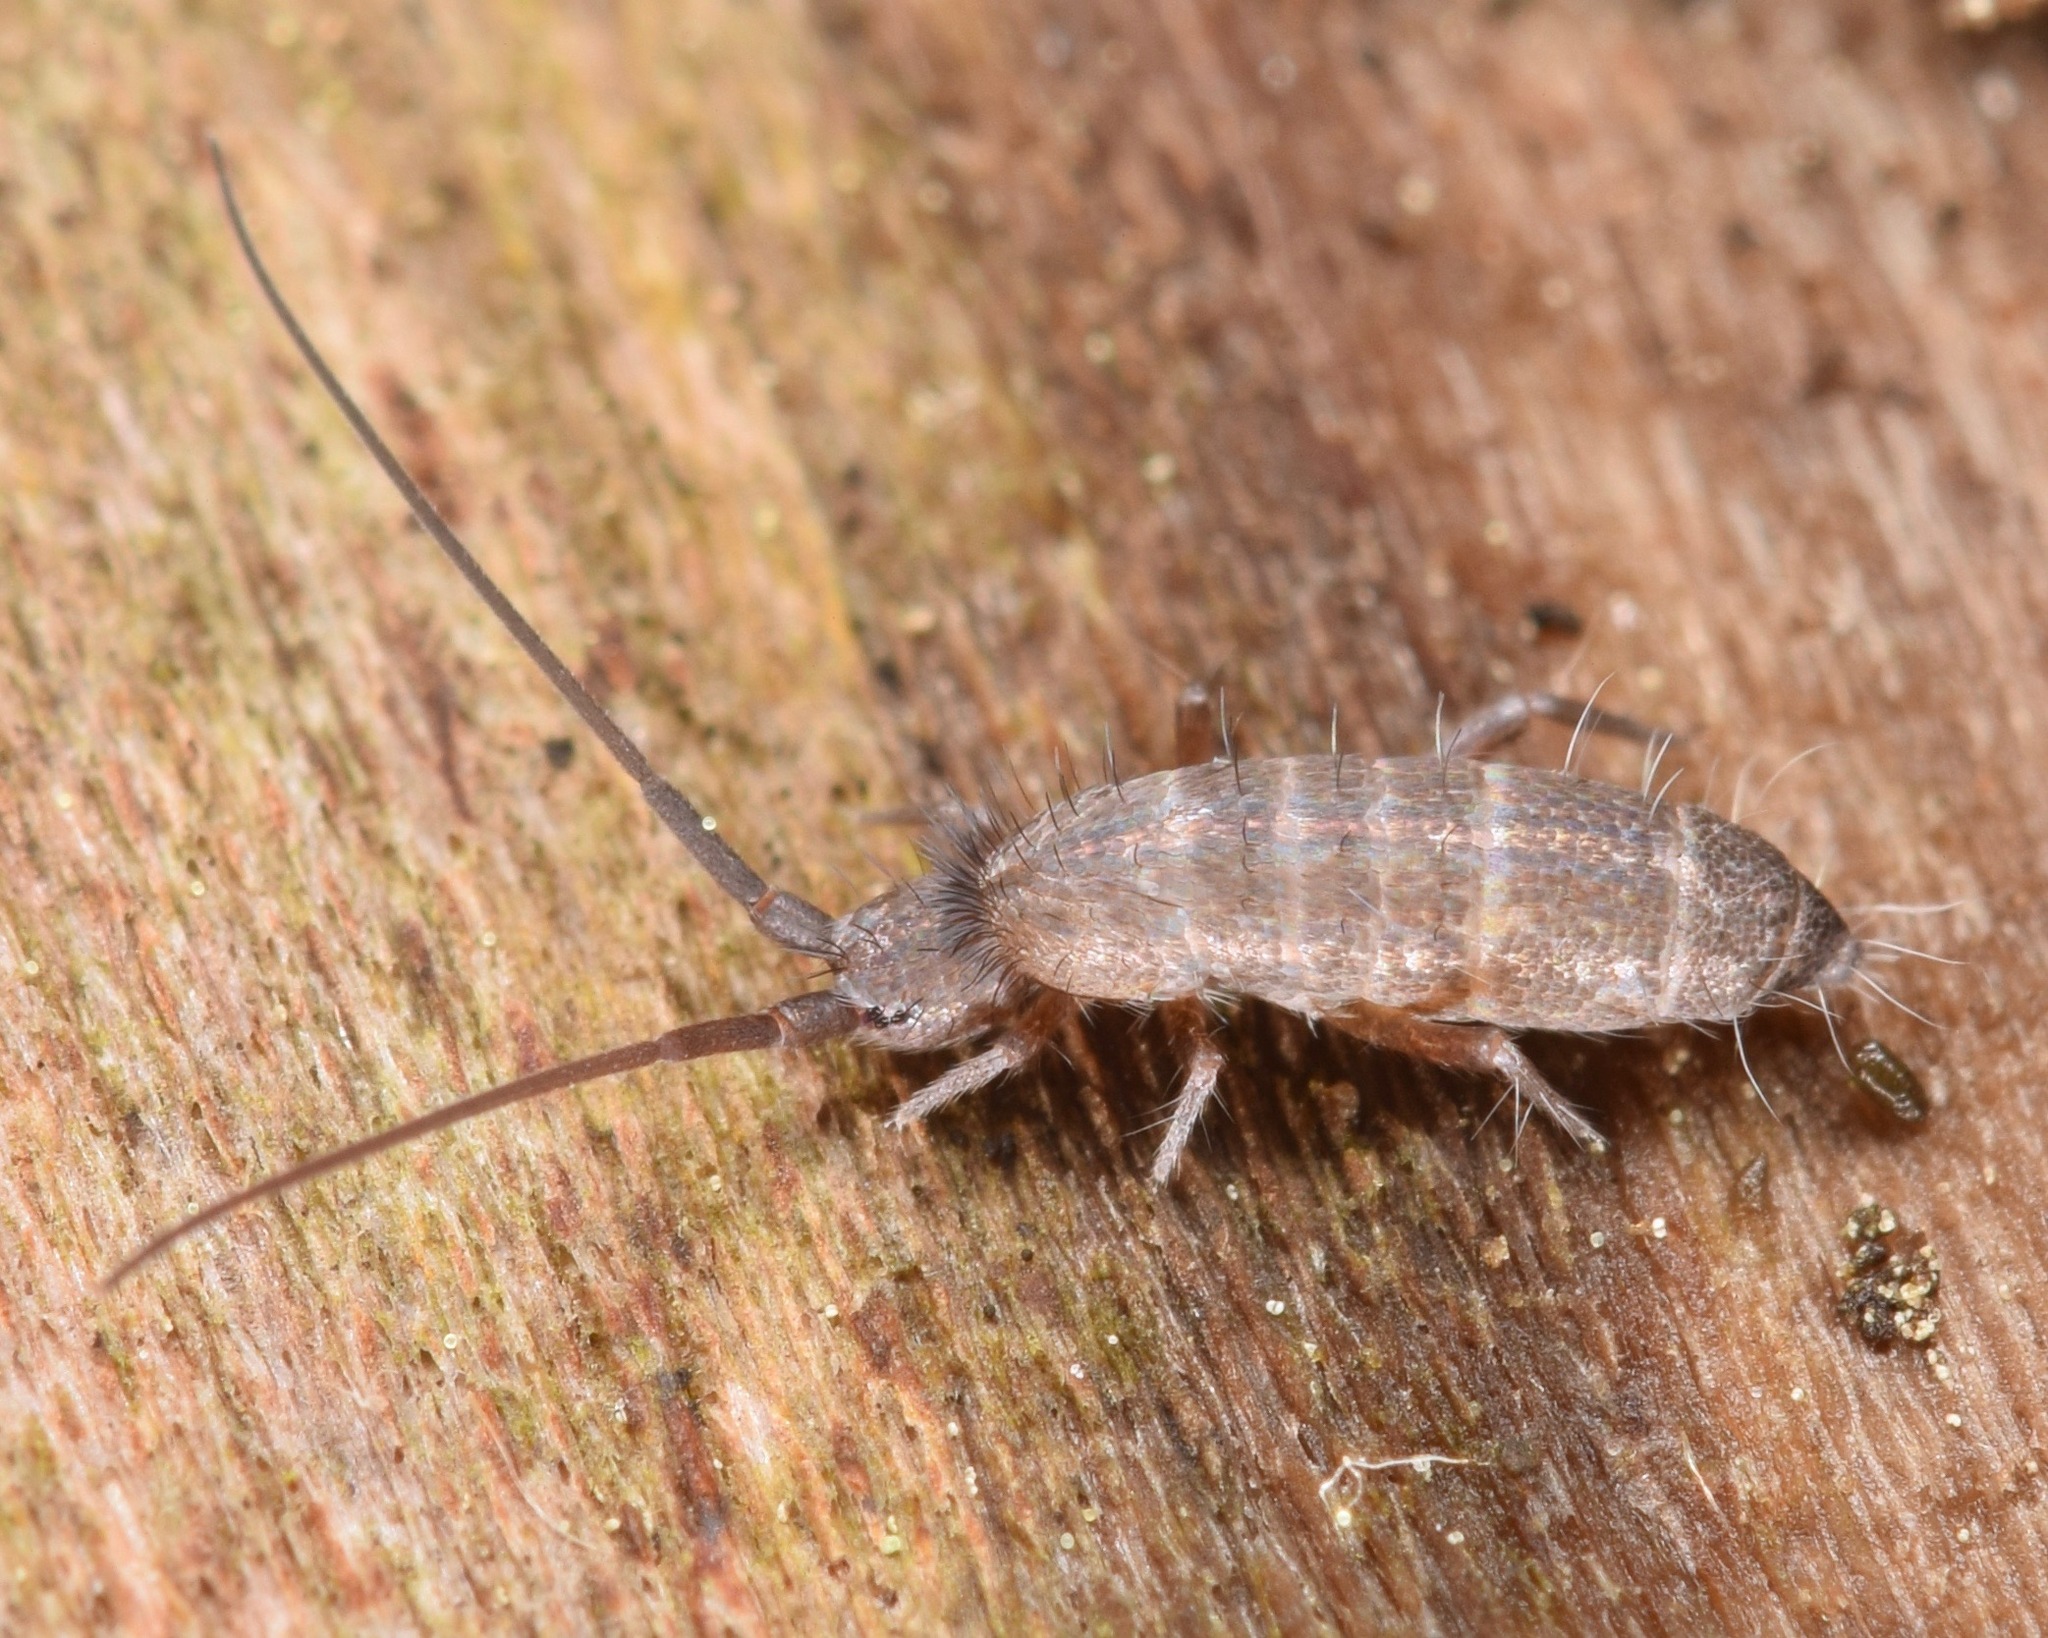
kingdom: Animalia
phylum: Arthropoda
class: Collembola
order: Entomobryomorpha
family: Tomoceridae
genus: Pogonognathellus
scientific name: Pogonognathellus dubius
